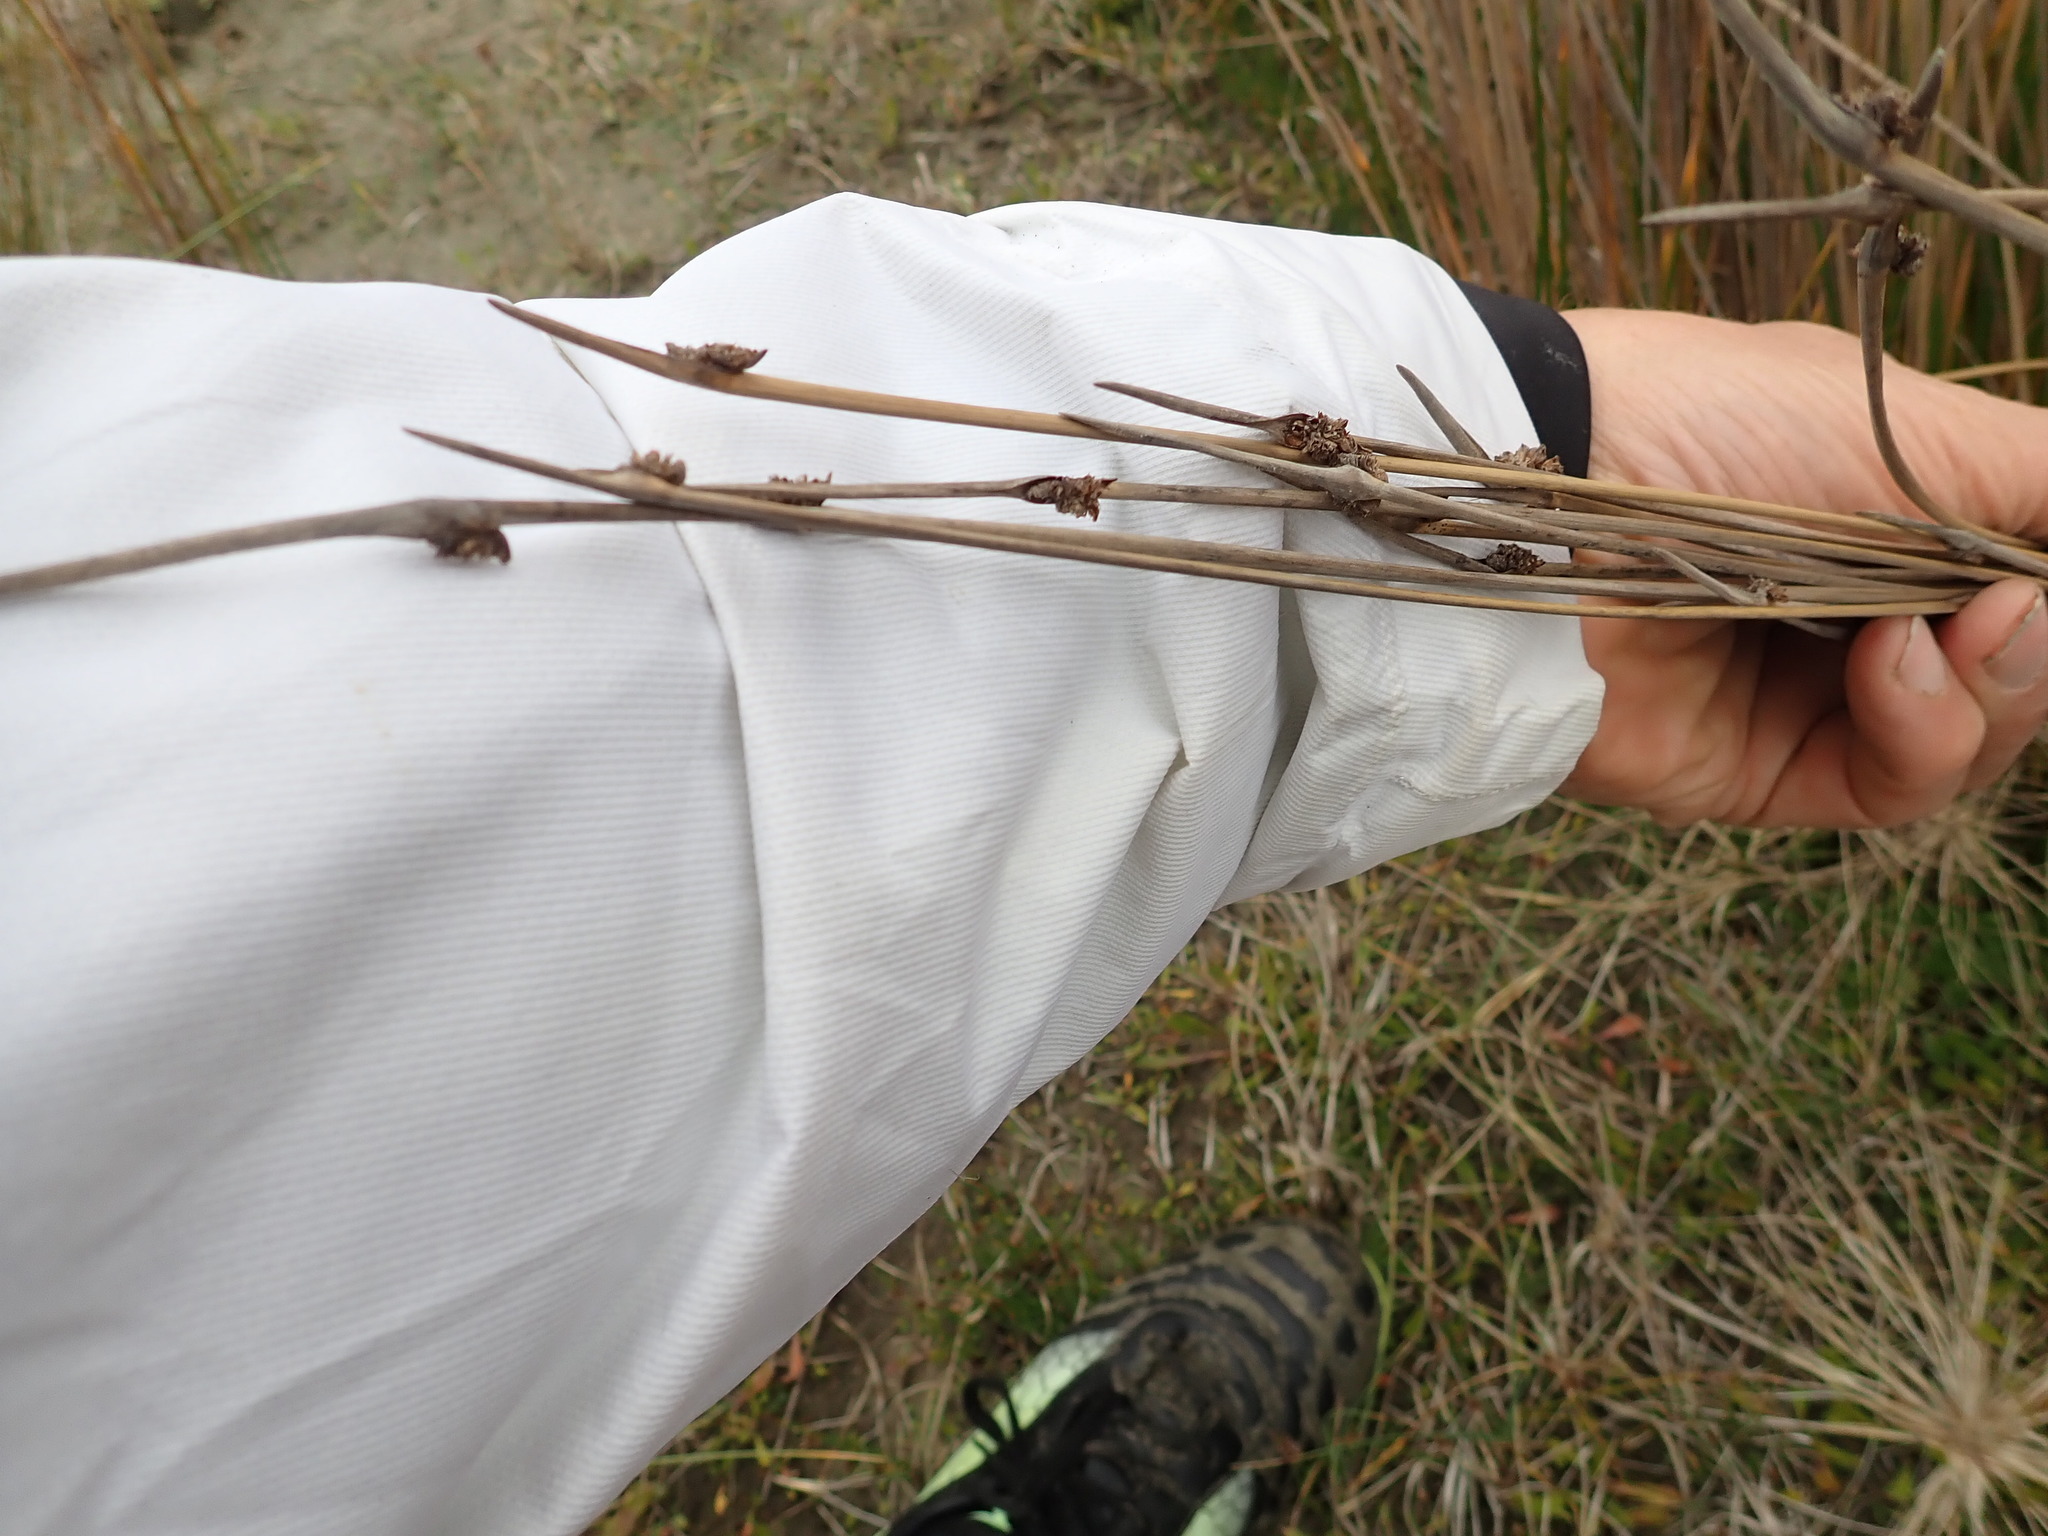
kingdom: Plantae
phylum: Tracheophyta
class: Liliopsida
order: Poales
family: Cyperaceae
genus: Ficinia
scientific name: Ficinia nodosa
